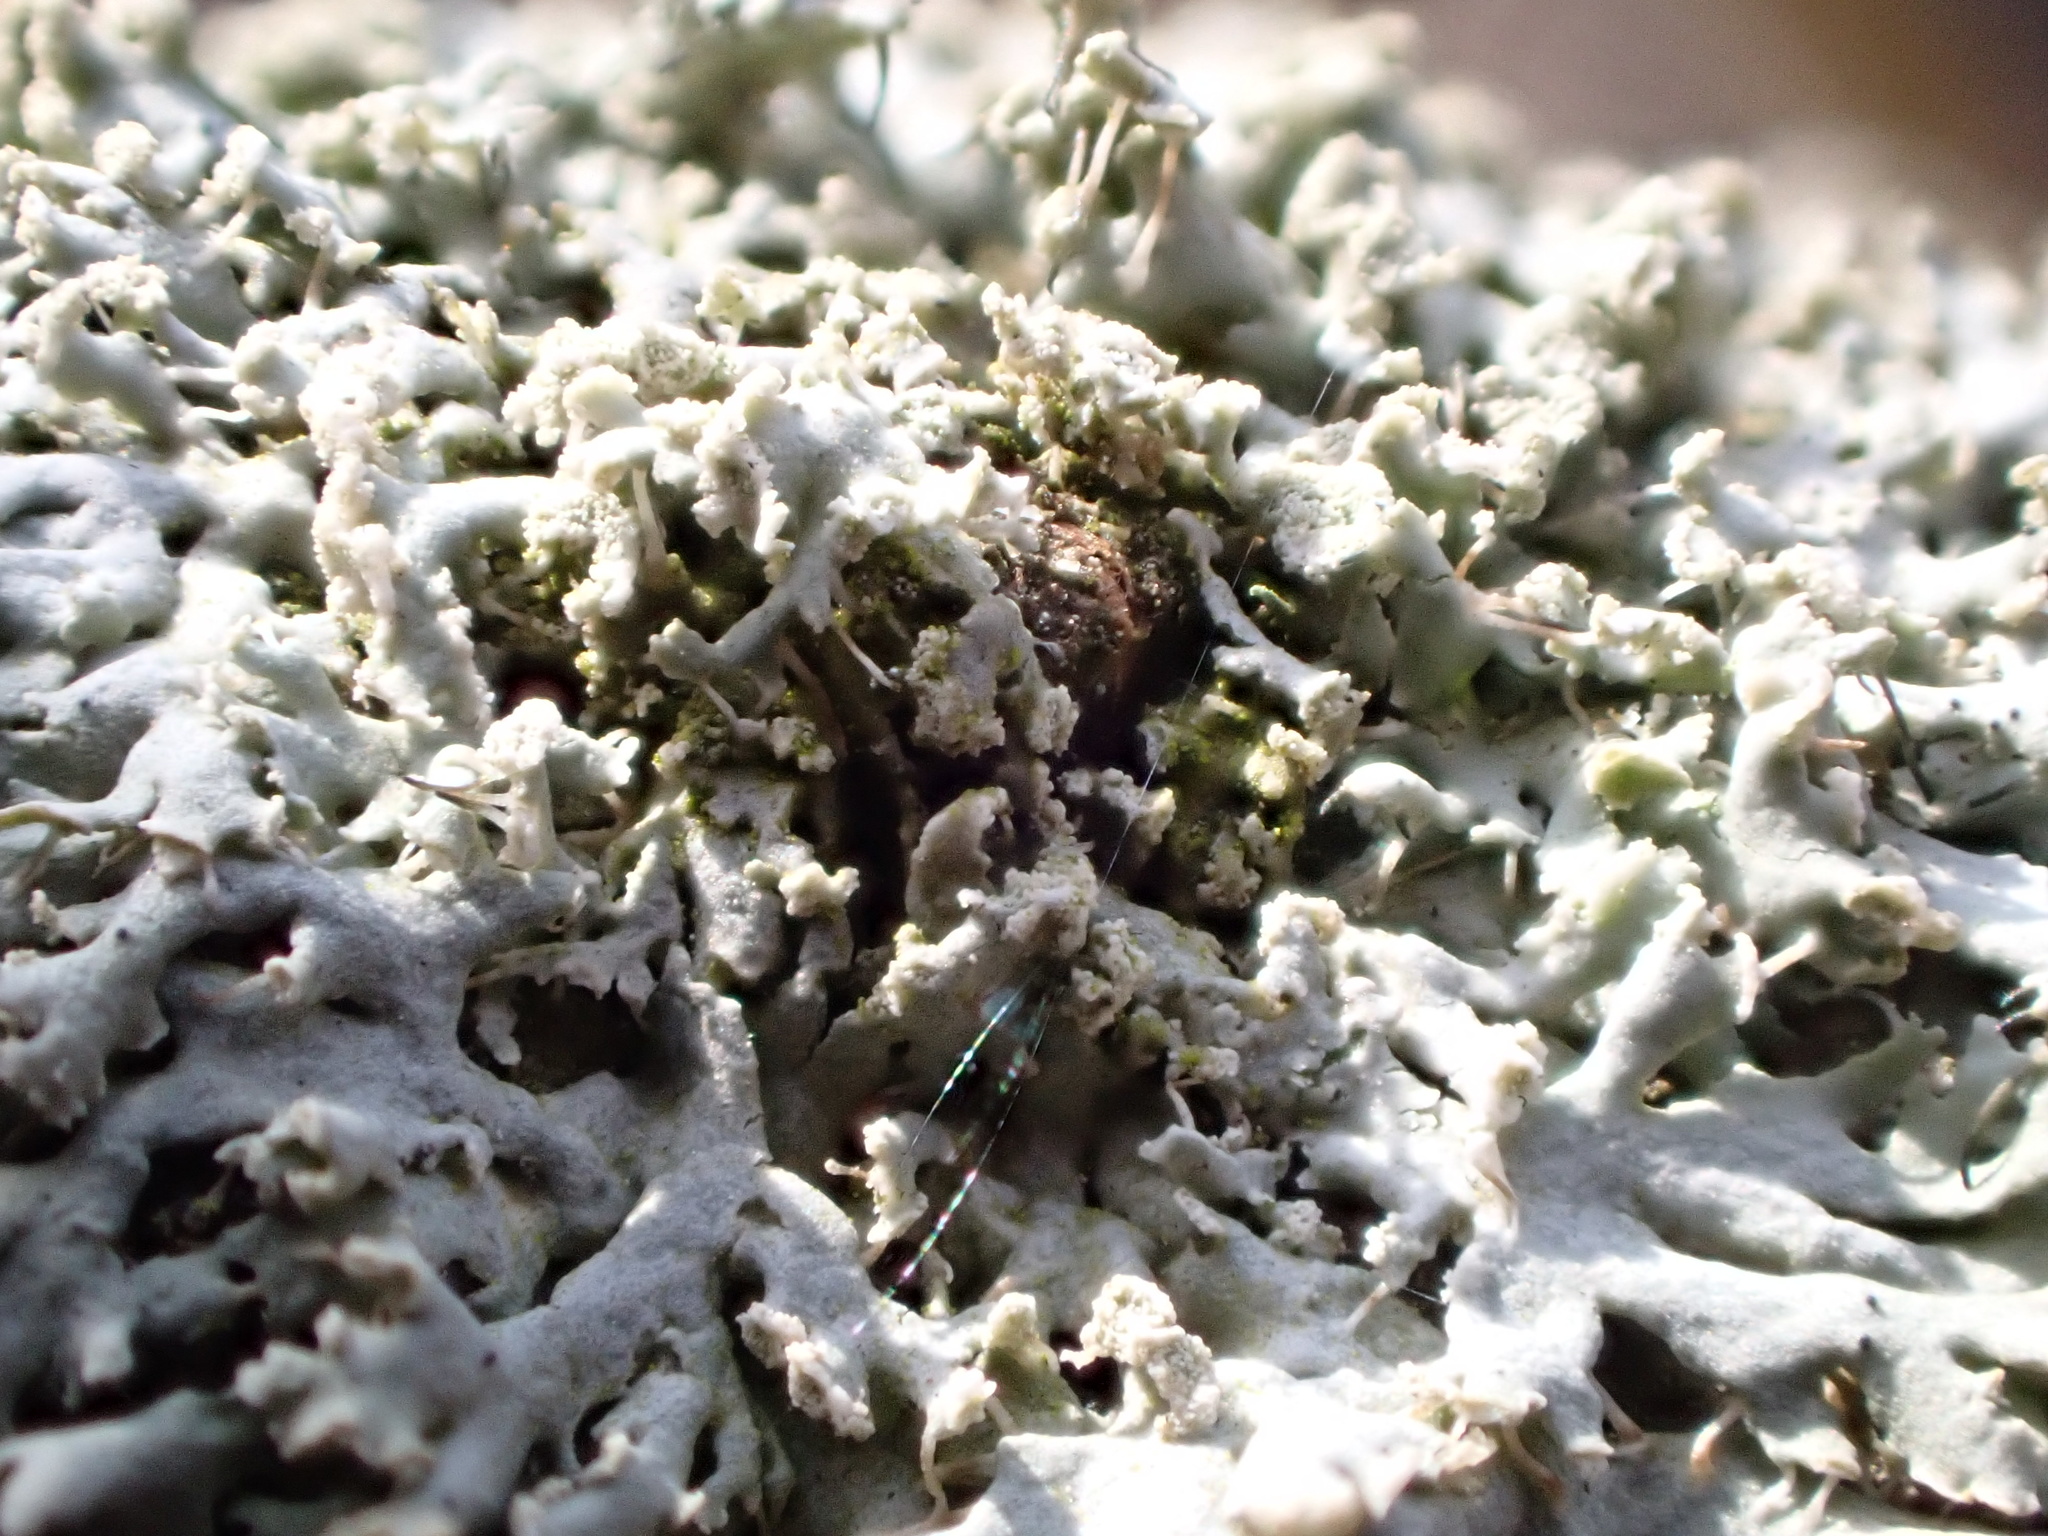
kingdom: Fungi
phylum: Ascomycota
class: Lecanoromycetes
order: Caliciales
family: Physciaceae
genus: Physcia
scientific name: Physcia tenella
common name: Fringed rosette lichen
